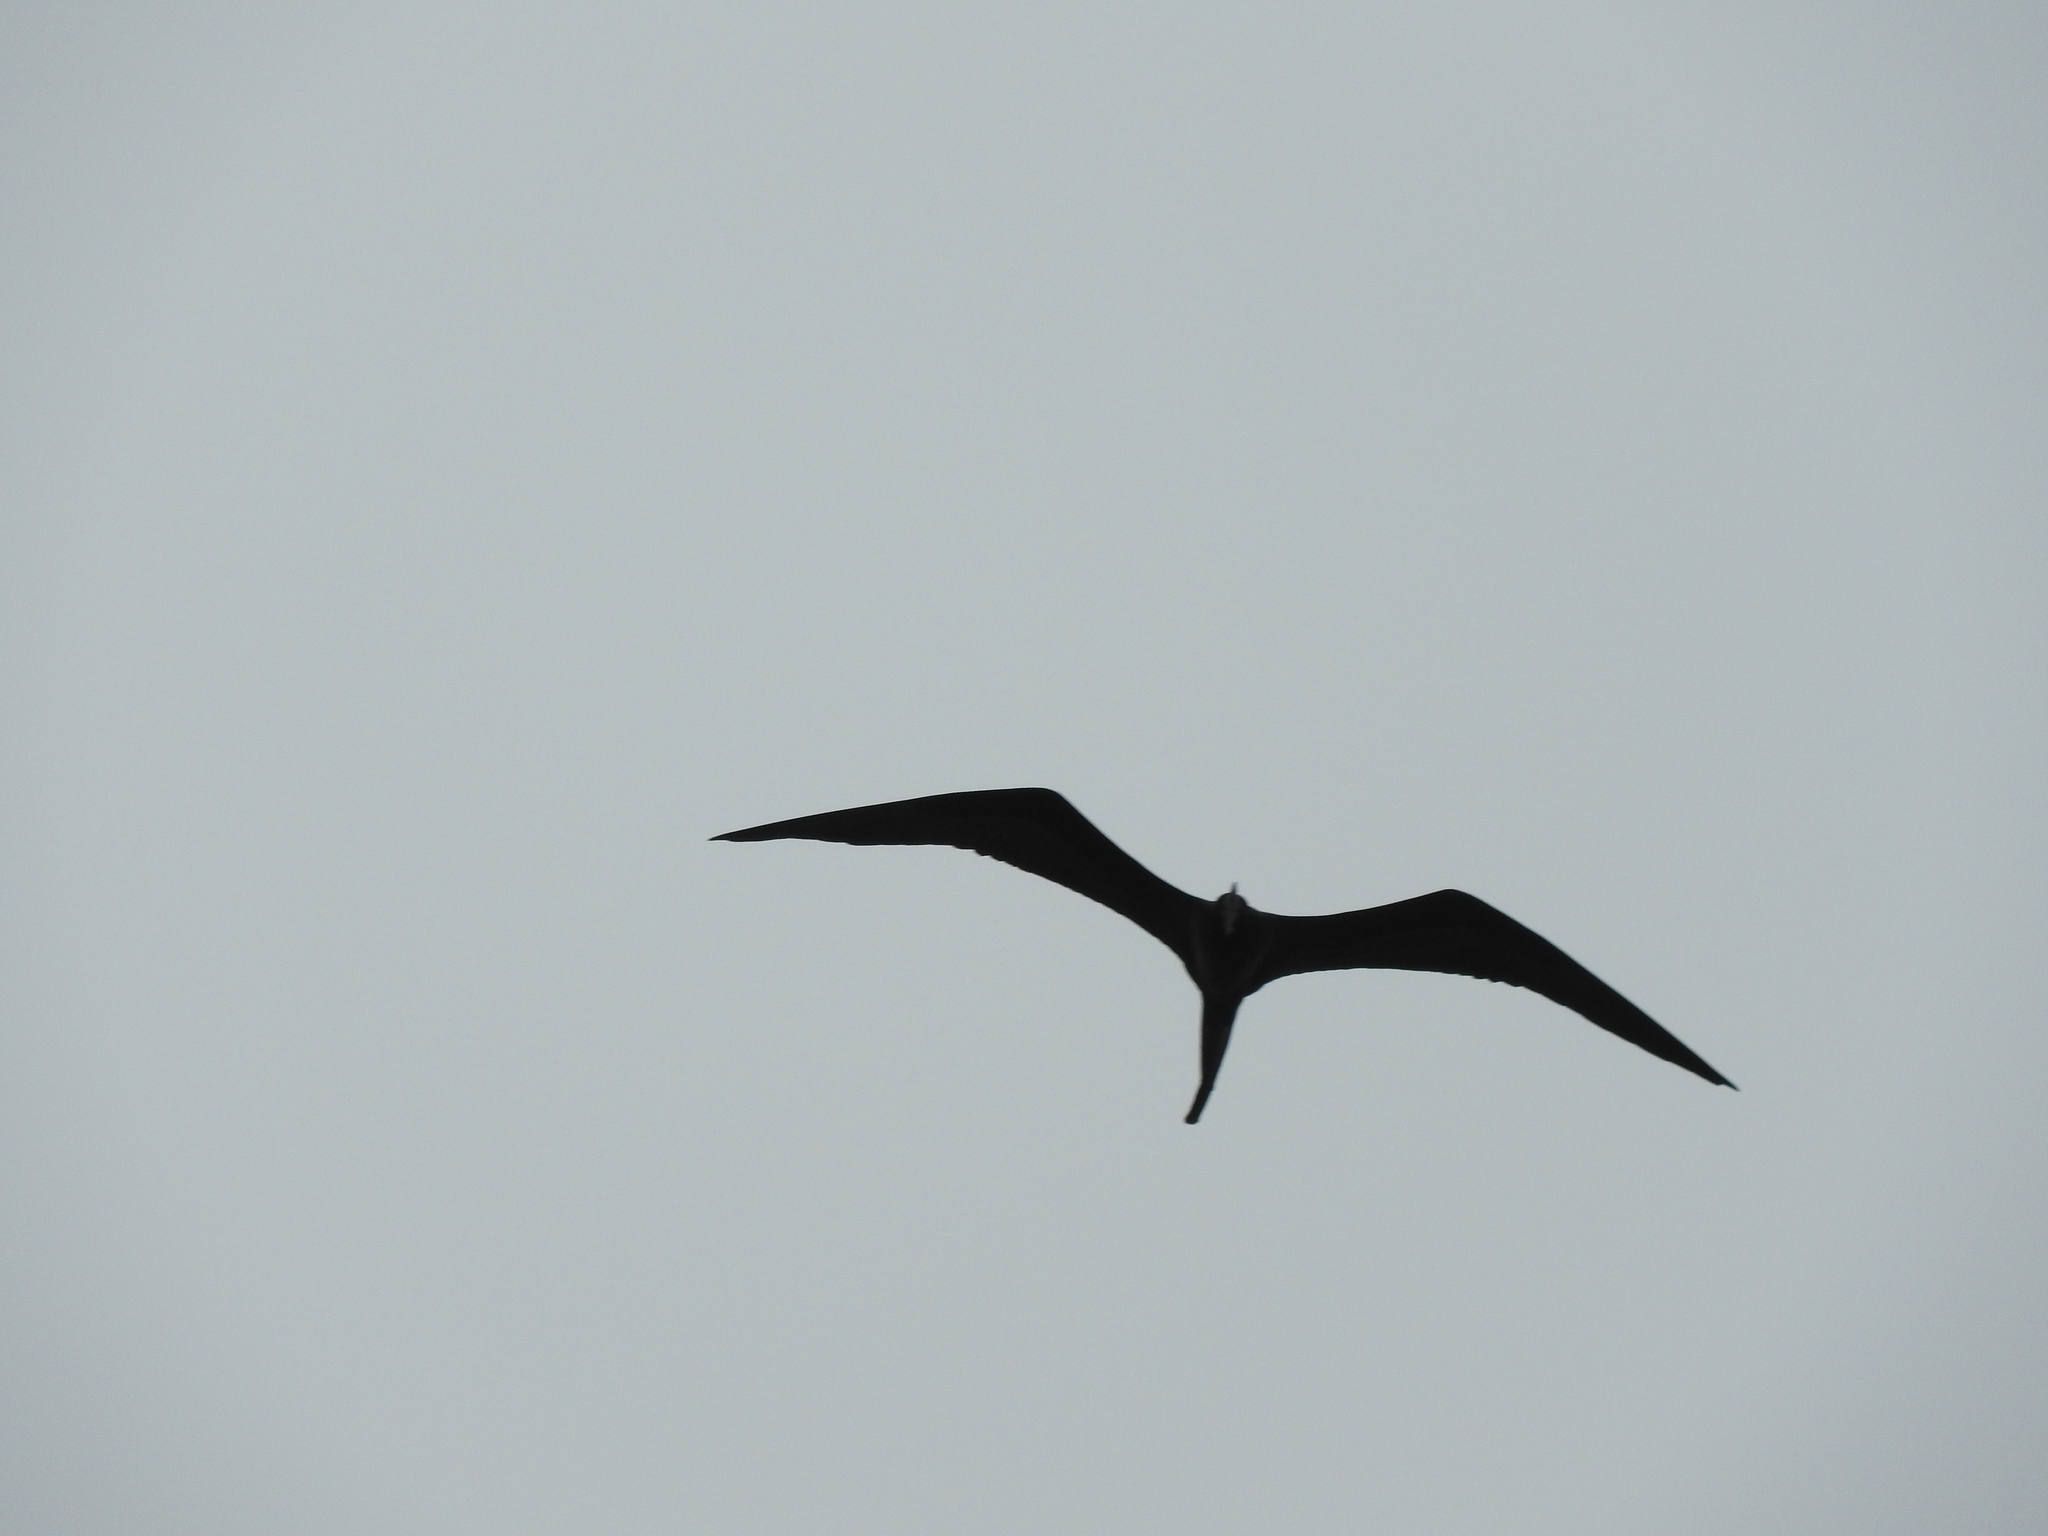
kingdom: Animalia
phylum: Chordata
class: Aves
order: Suliformes
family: Fregatidae
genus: Fregata
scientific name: Fregata magnificens
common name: Magnificent frigatebird
